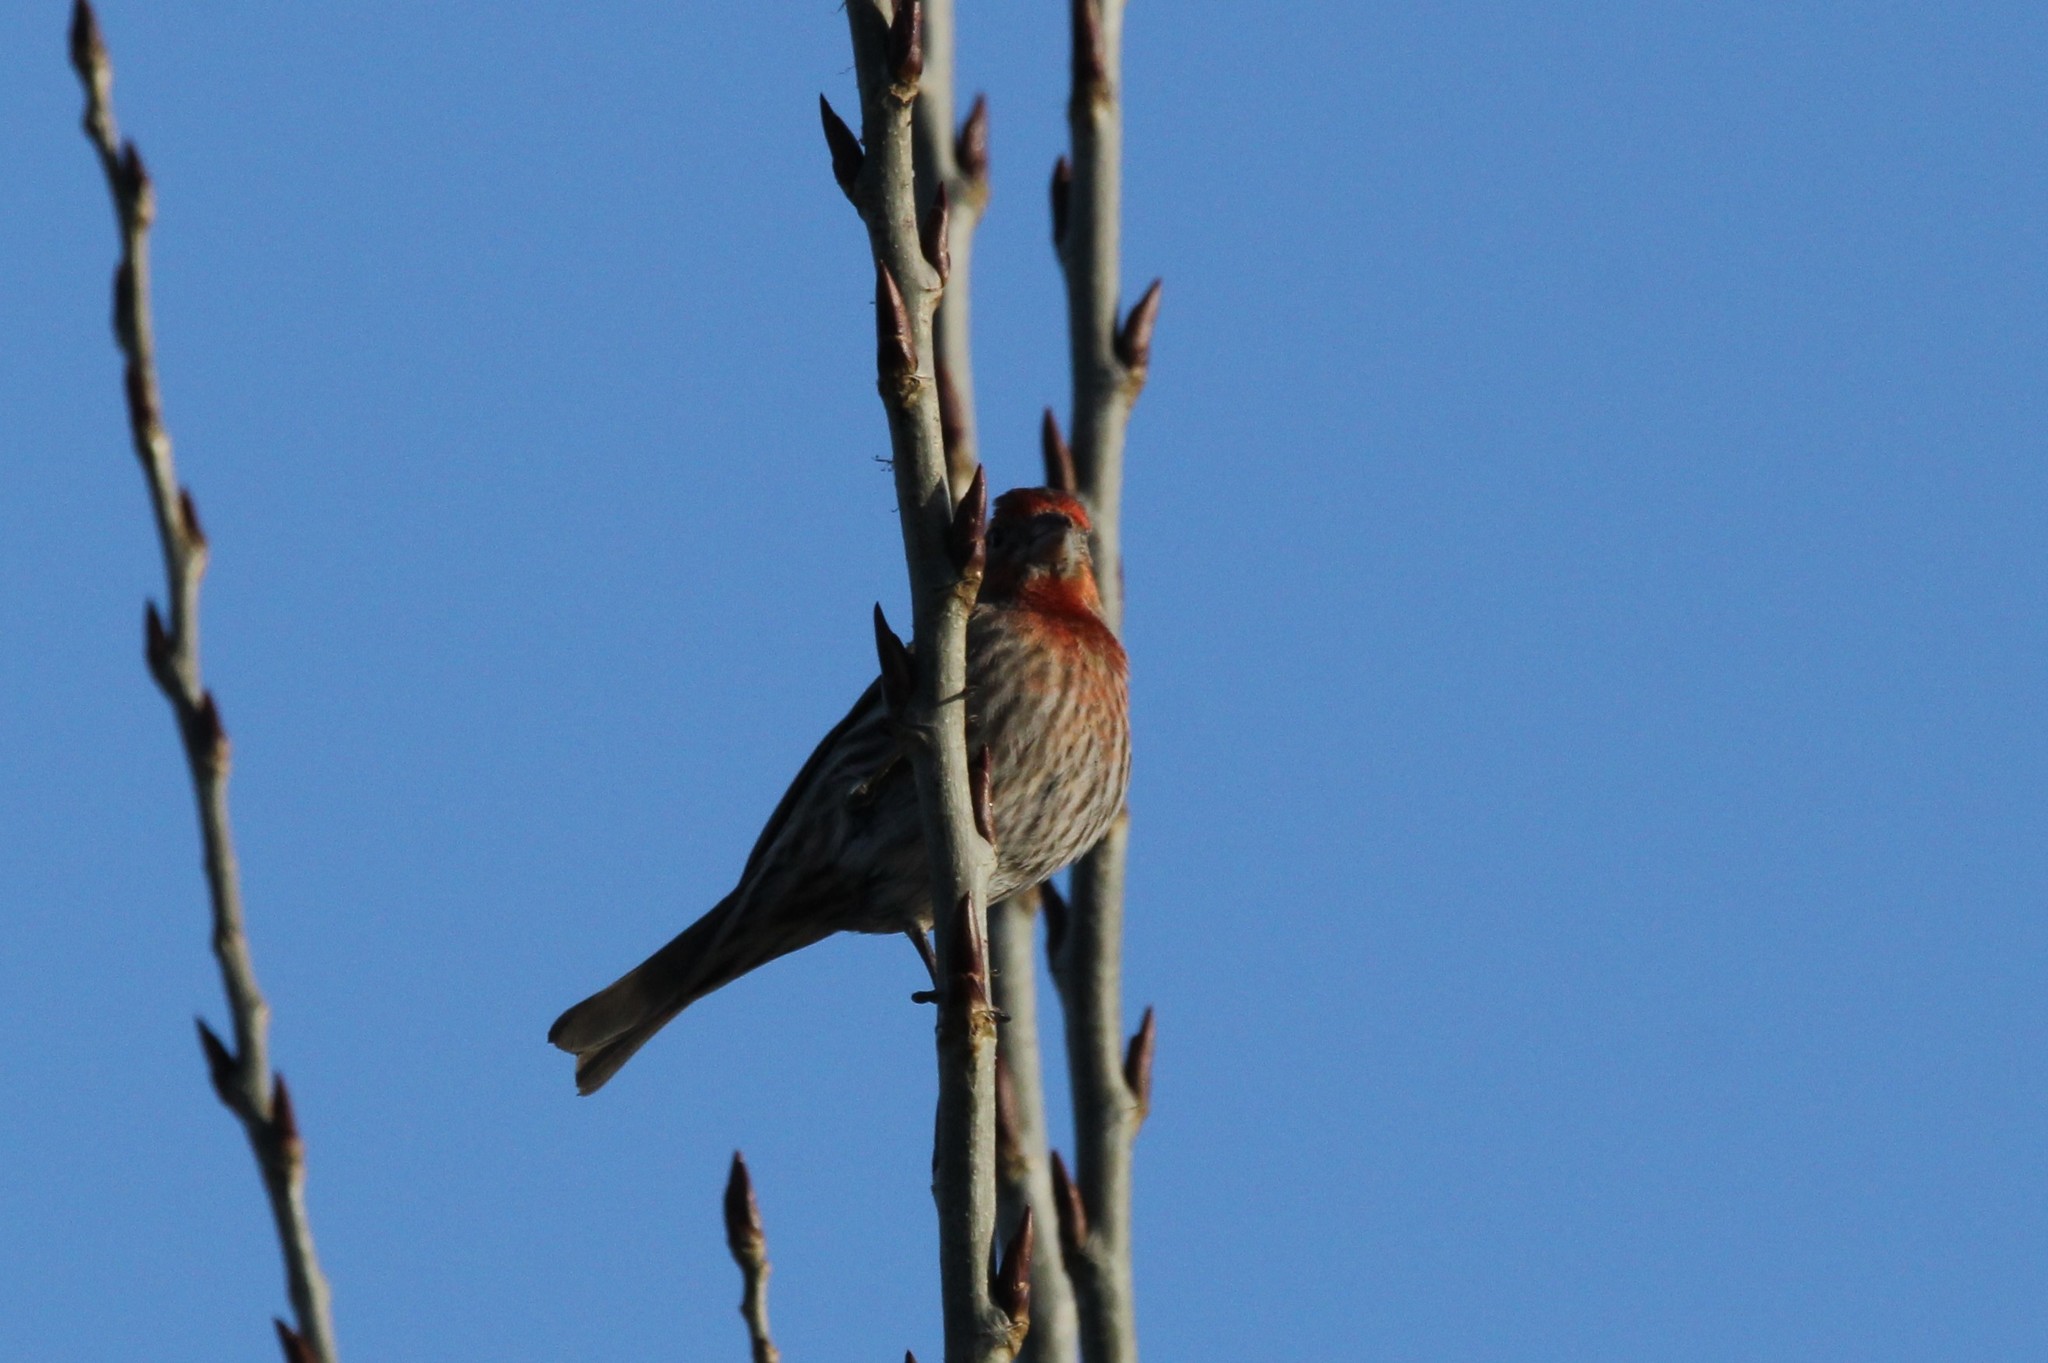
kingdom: Animalia
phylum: Chordata
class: Aves
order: Passeriformes
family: Fringillidae
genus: Haemorhous
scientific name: Haemorhous mexicanus
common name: House finch
